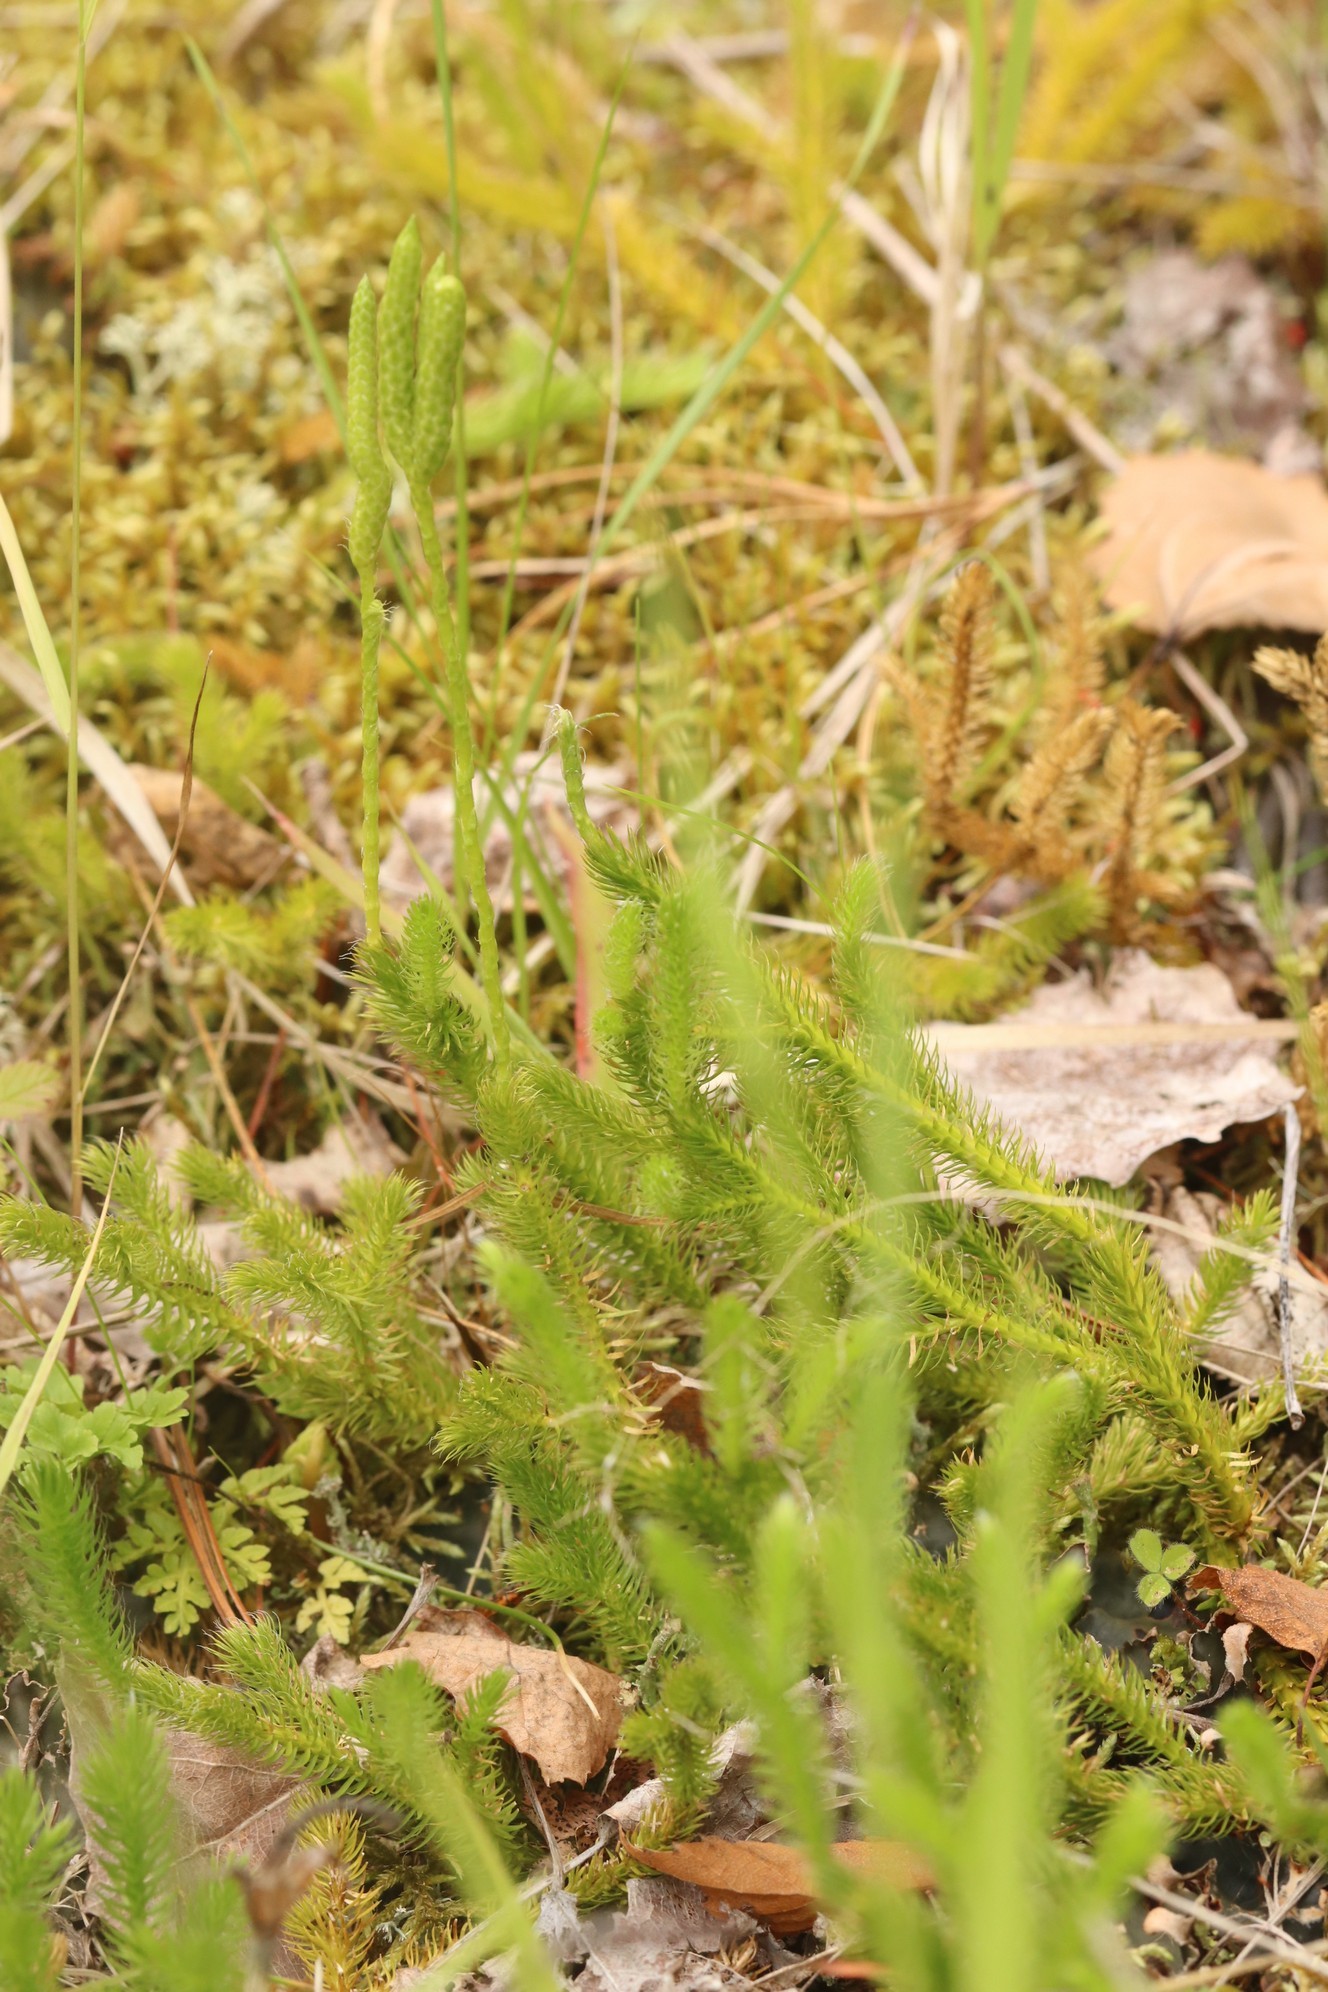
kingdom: Plantae
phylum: Tracheophyta
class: Lycopodiopsida
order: Lycopodiales
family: Lycopodiaceae
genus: Lycopodium
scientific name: Lycopodium clavatum
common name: Stag's-horn clubmoss
